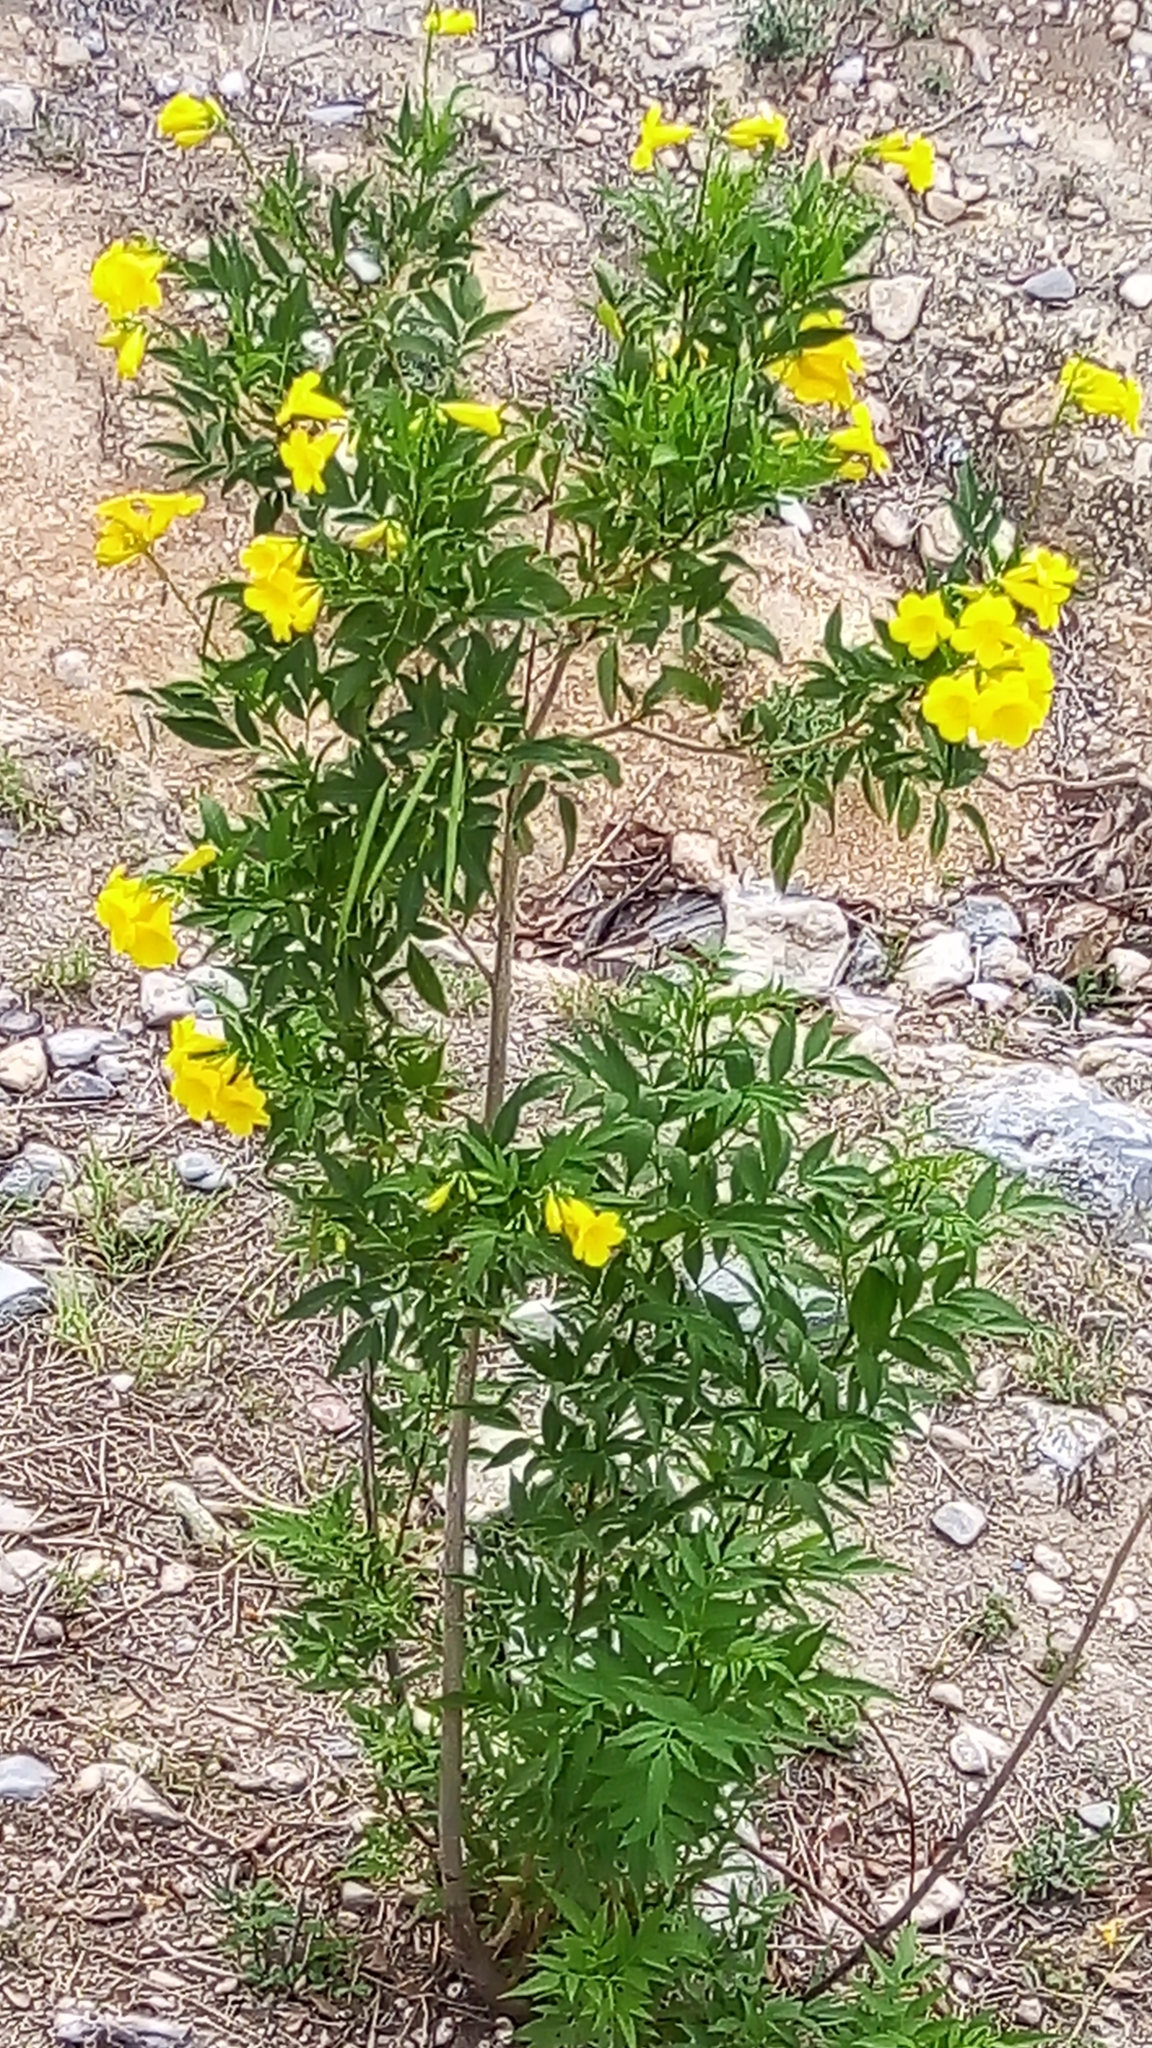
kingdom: Plantae
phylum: Tracheophyta
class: Magnoliopsida
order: Lamiales
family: Bignoniaceae
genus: Tecoma
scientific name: Tecoma stans
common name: Yellow trumpetbush
